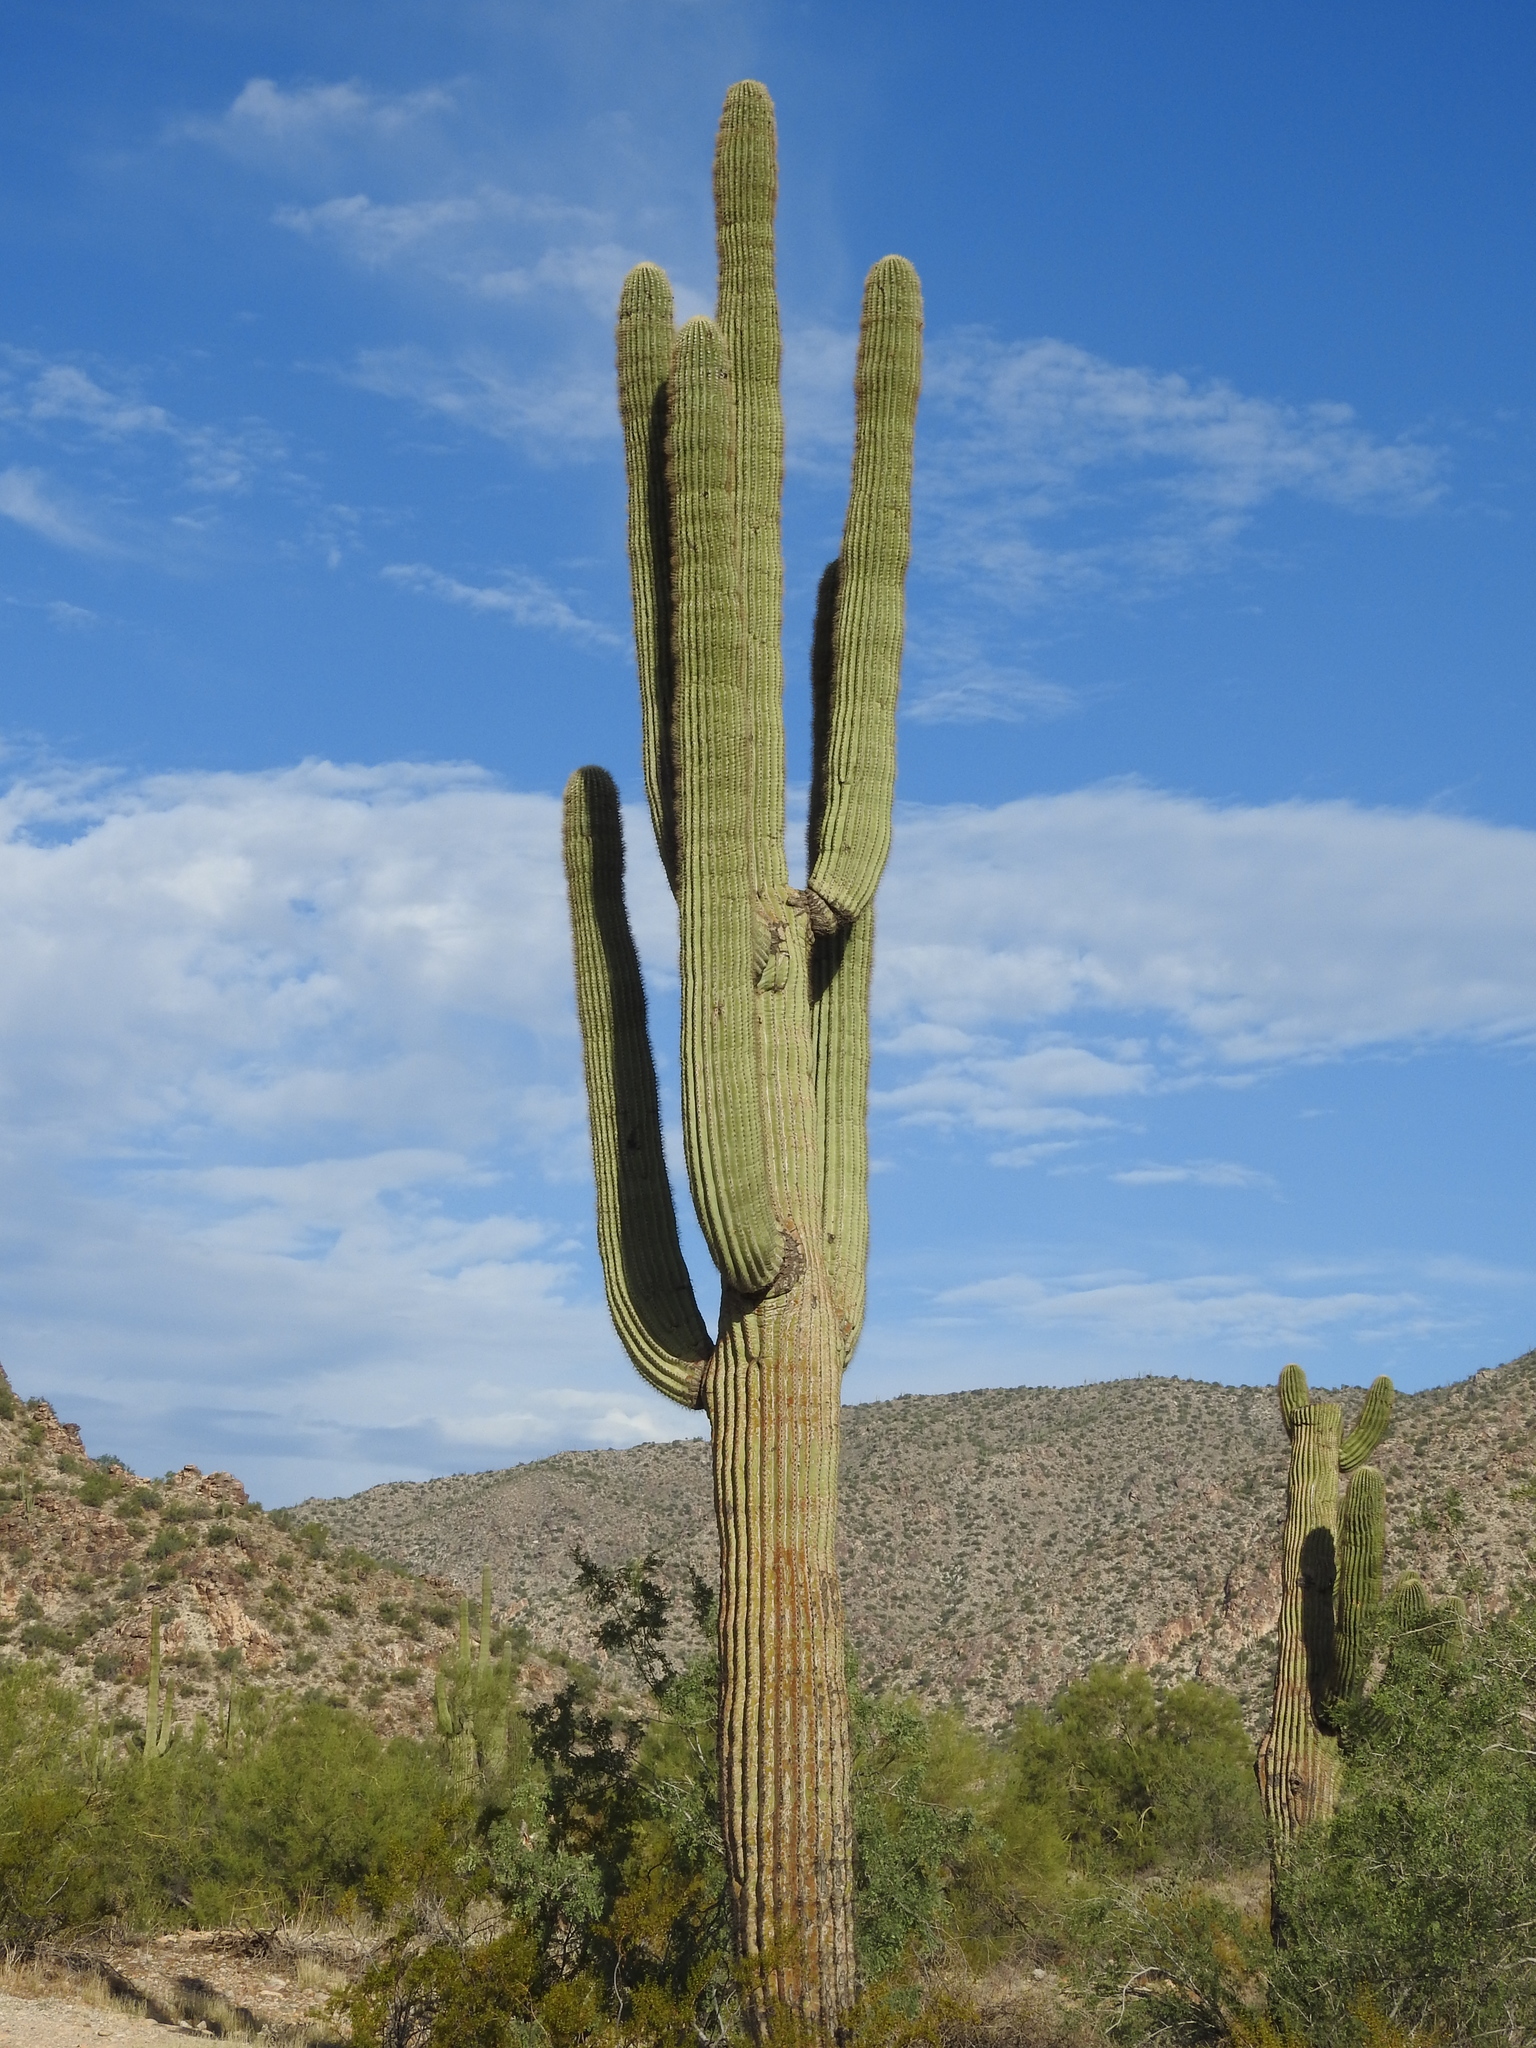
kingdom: Plantae
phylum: Tracheophyta
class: Magnoliopsida
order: Caryophyllales
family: Cactaceae
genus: Carnegiea
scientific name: Carnegiea gigantea
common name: Saguaro
